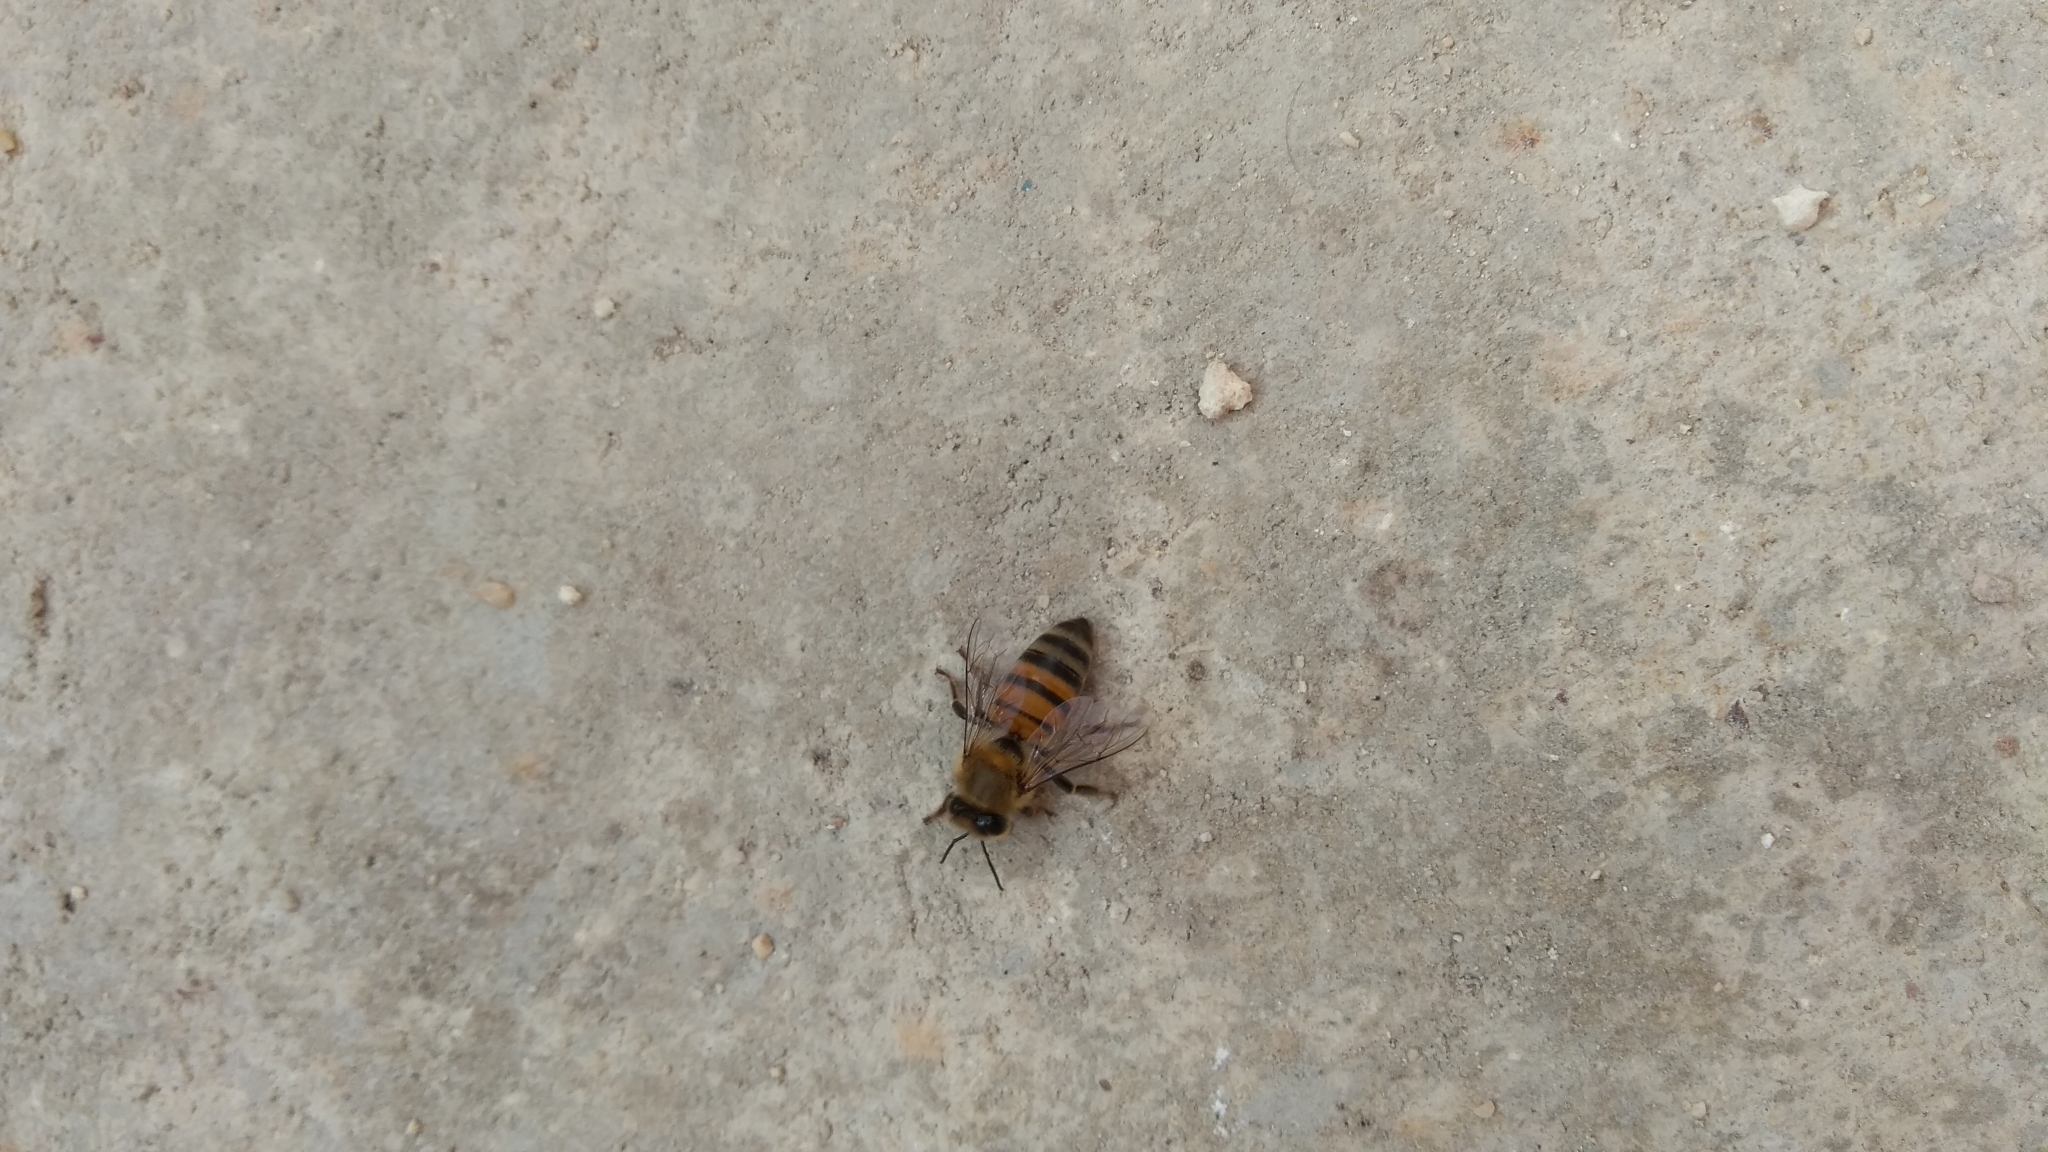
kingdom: Animalia
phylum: Arthropoda
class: Insecta
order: Hymenoptera
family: Apidae
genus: Apis
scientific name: Apis mellifera
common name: Honey bee
